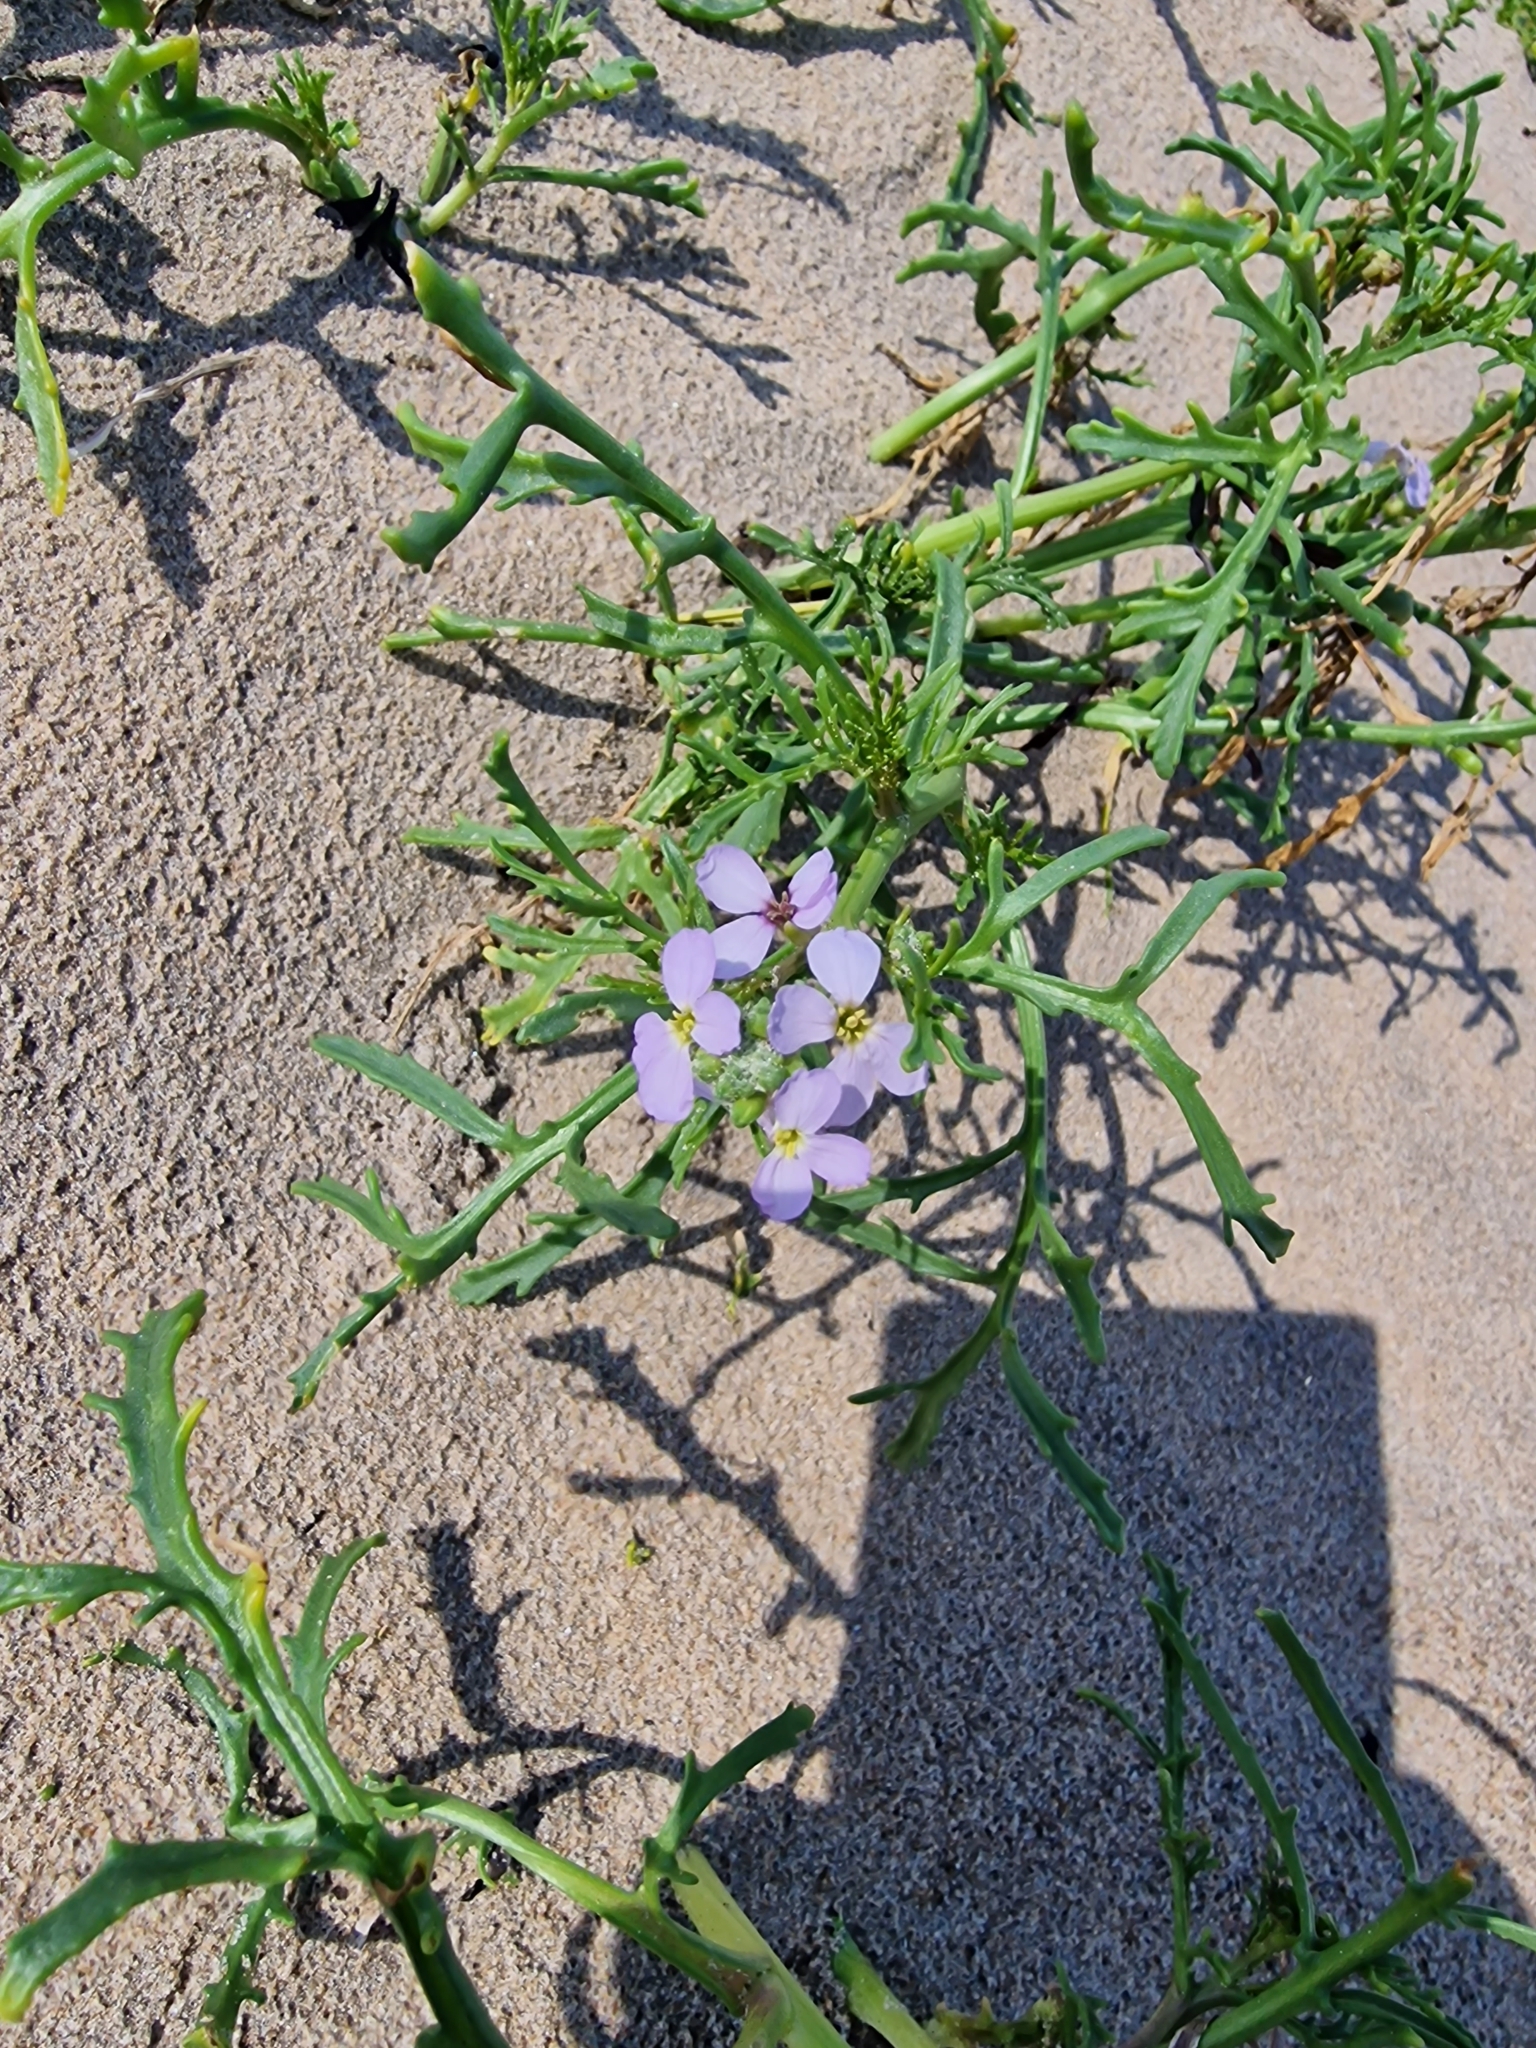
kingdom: Plantae
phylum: Tracheophyta
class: Magnoliopsida
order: Brassicales
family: Brassicaceae
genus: Cakile
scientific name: Cakile maritima
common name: Sea rocket
